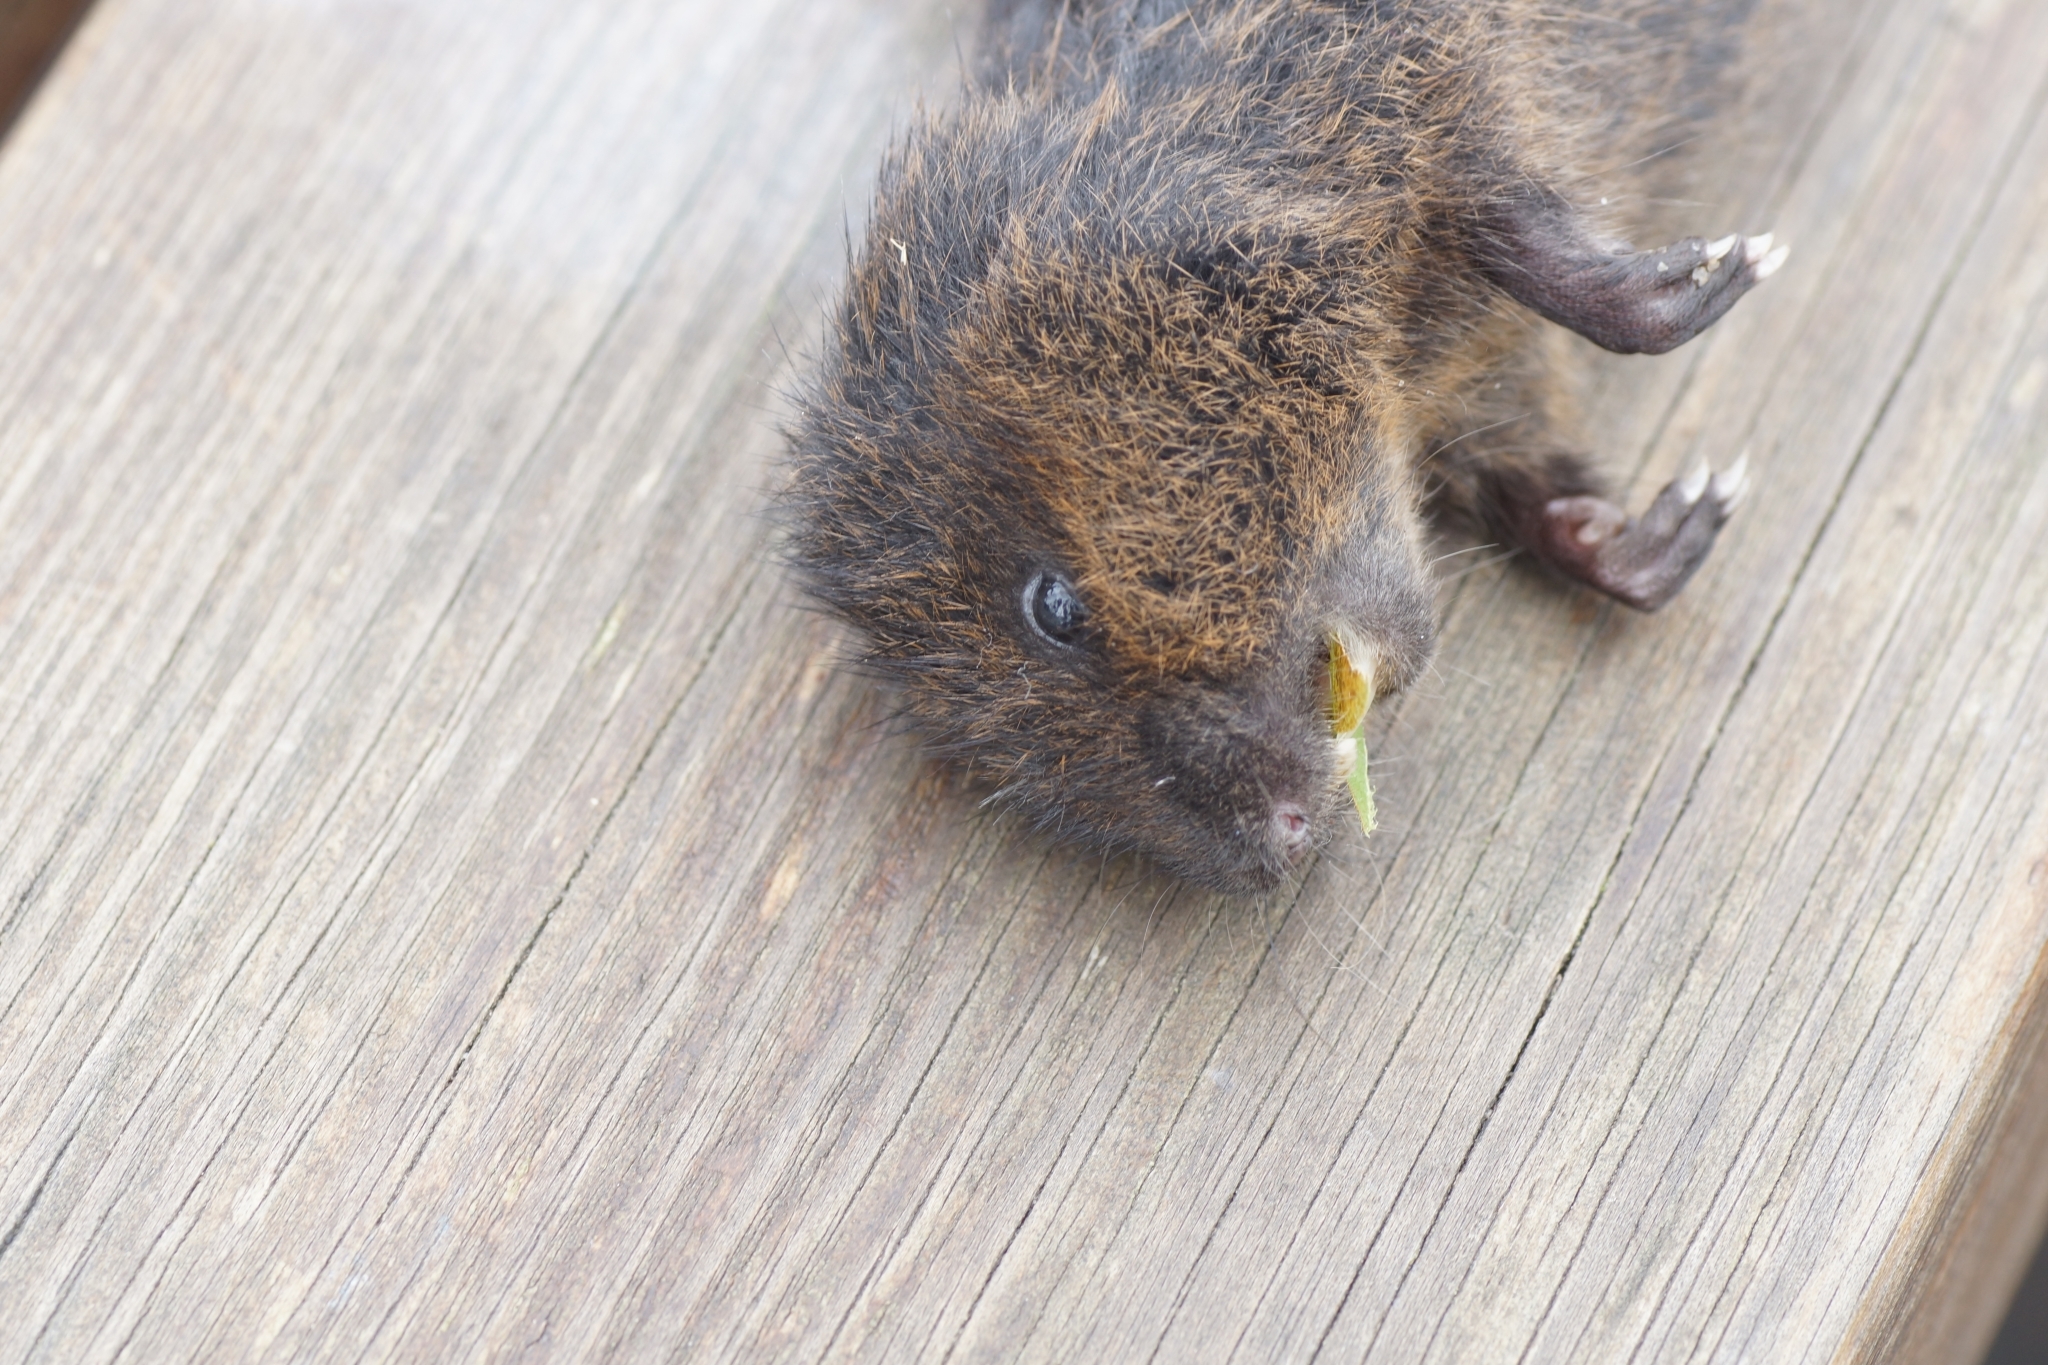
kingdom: Animalia
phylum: Chordata
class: Mammalia
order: Rodentia
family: Cricetidae
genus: Arvicola
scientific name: Arvicola amphibius
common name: European water vole
